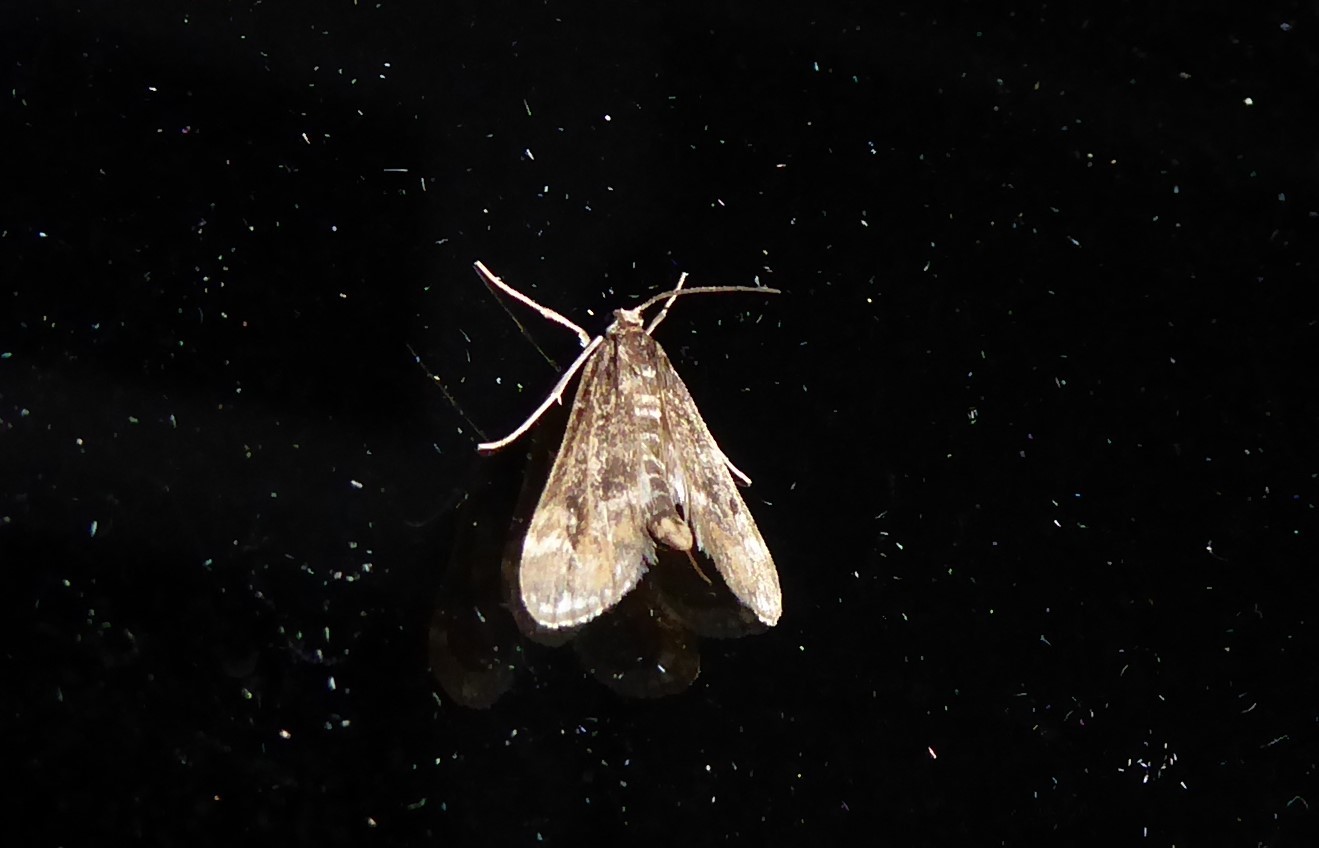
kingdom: Animalia
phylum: Arthropoda
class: Insecta
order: Lepidoptera
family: Crambidae
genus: Hygraula
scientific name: Hygraula nitens
